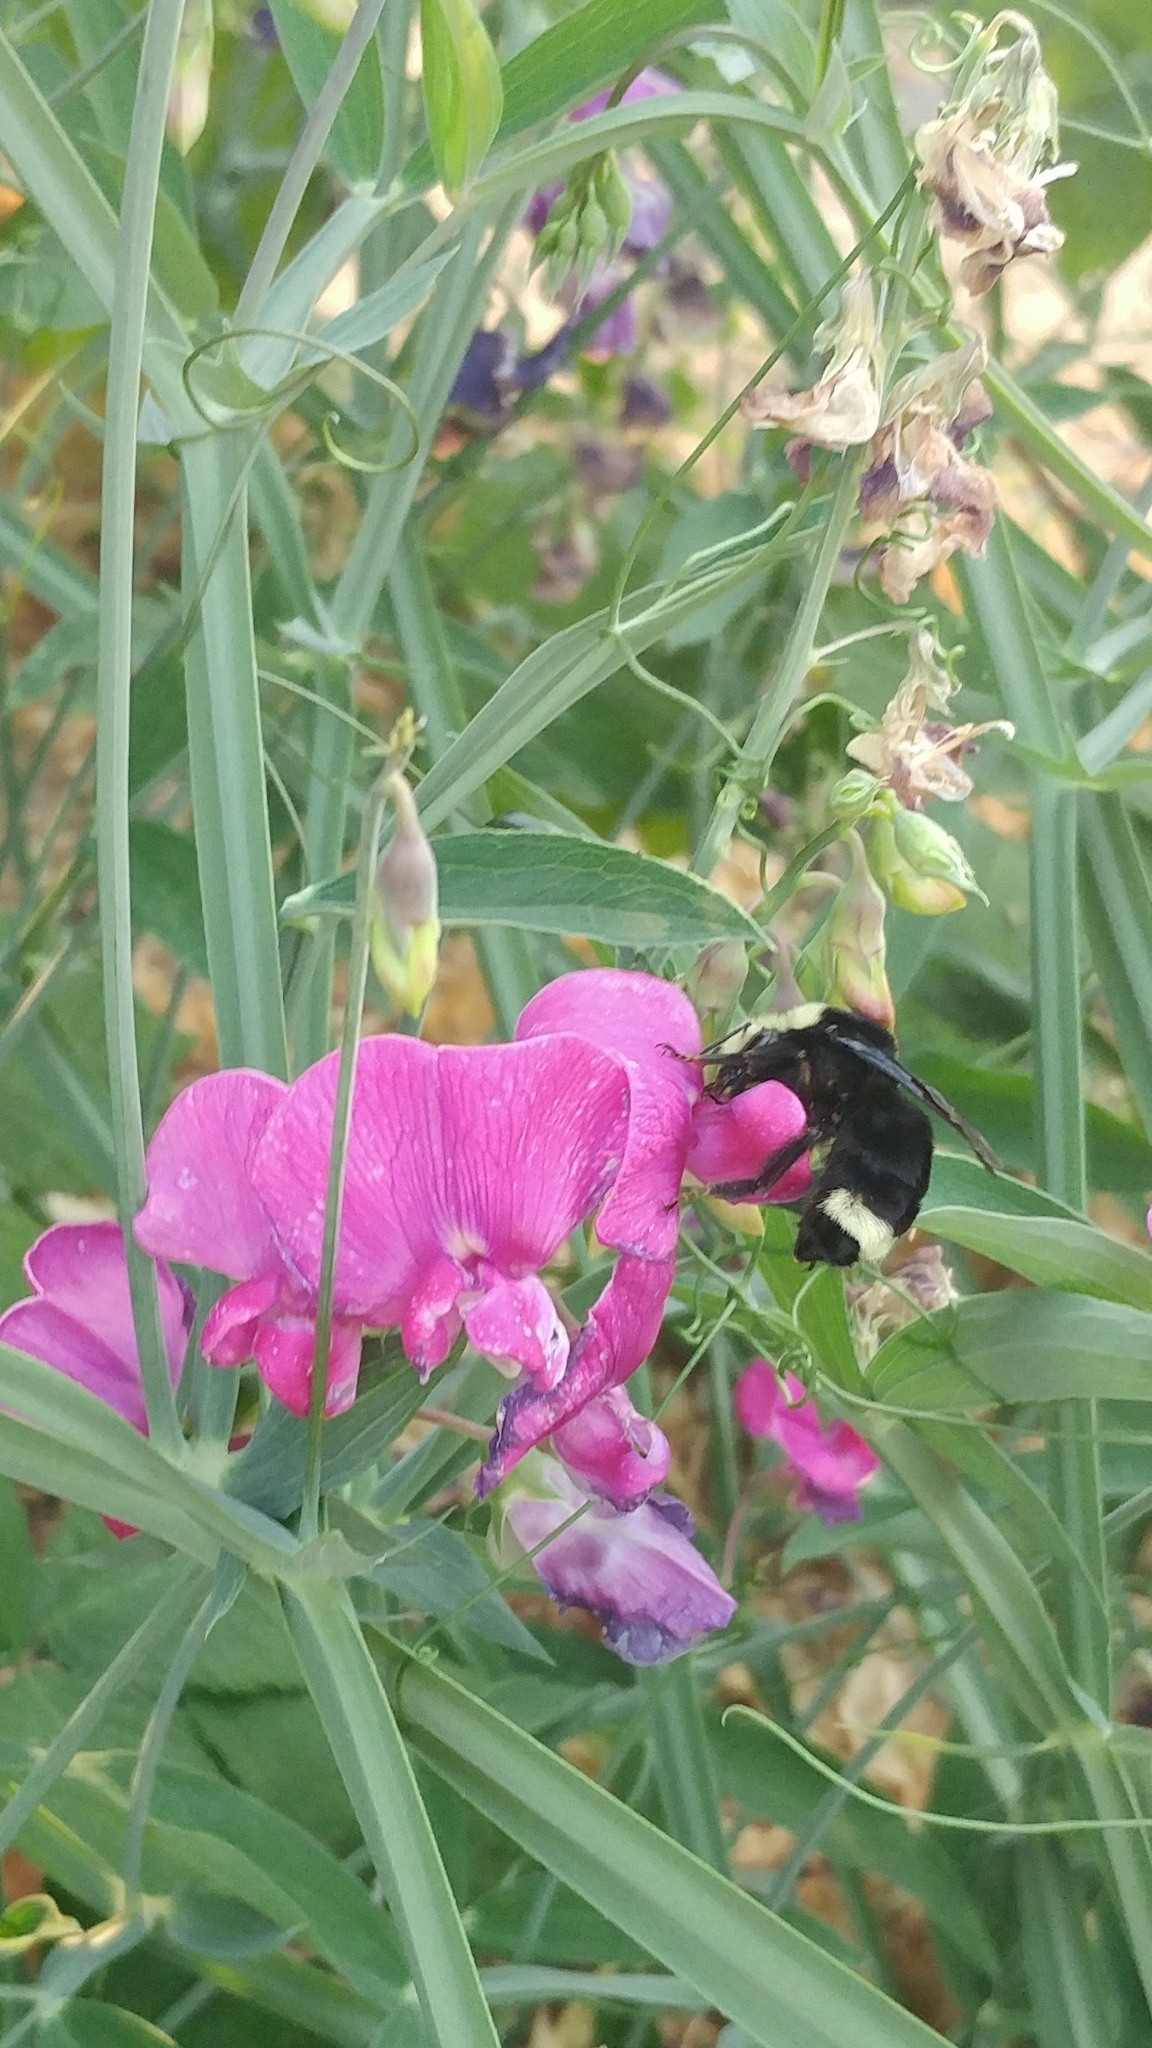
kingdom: Animalia
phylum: Arthropoda
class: Insecta
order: Hymenoptera
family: Apidae
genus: Bombus
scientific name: Bombus vosnesenskii
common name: Vosnesensky bumble bee
